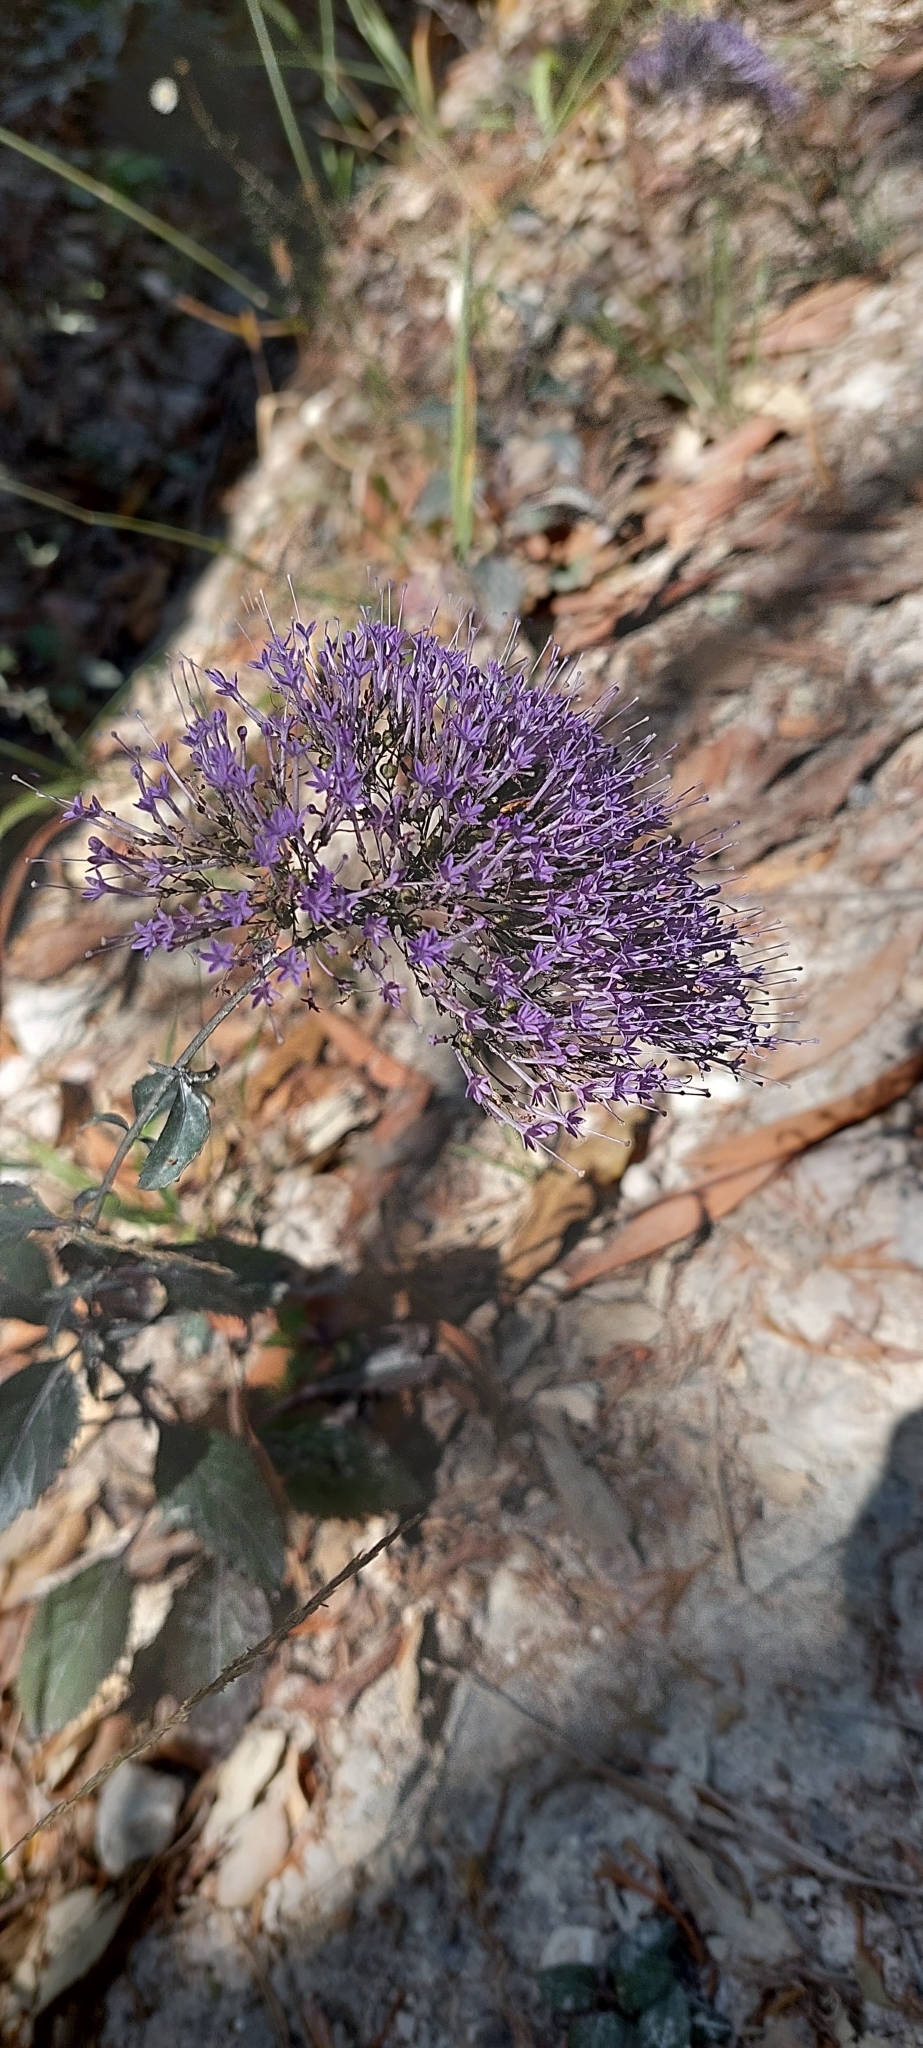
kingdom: Plantae
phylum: Tracheophyta
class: Magnoliopsida
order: Asterales
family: Campanulaceae
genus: Trachelium
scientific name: Trachelium caeruleum
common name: Throatwort
